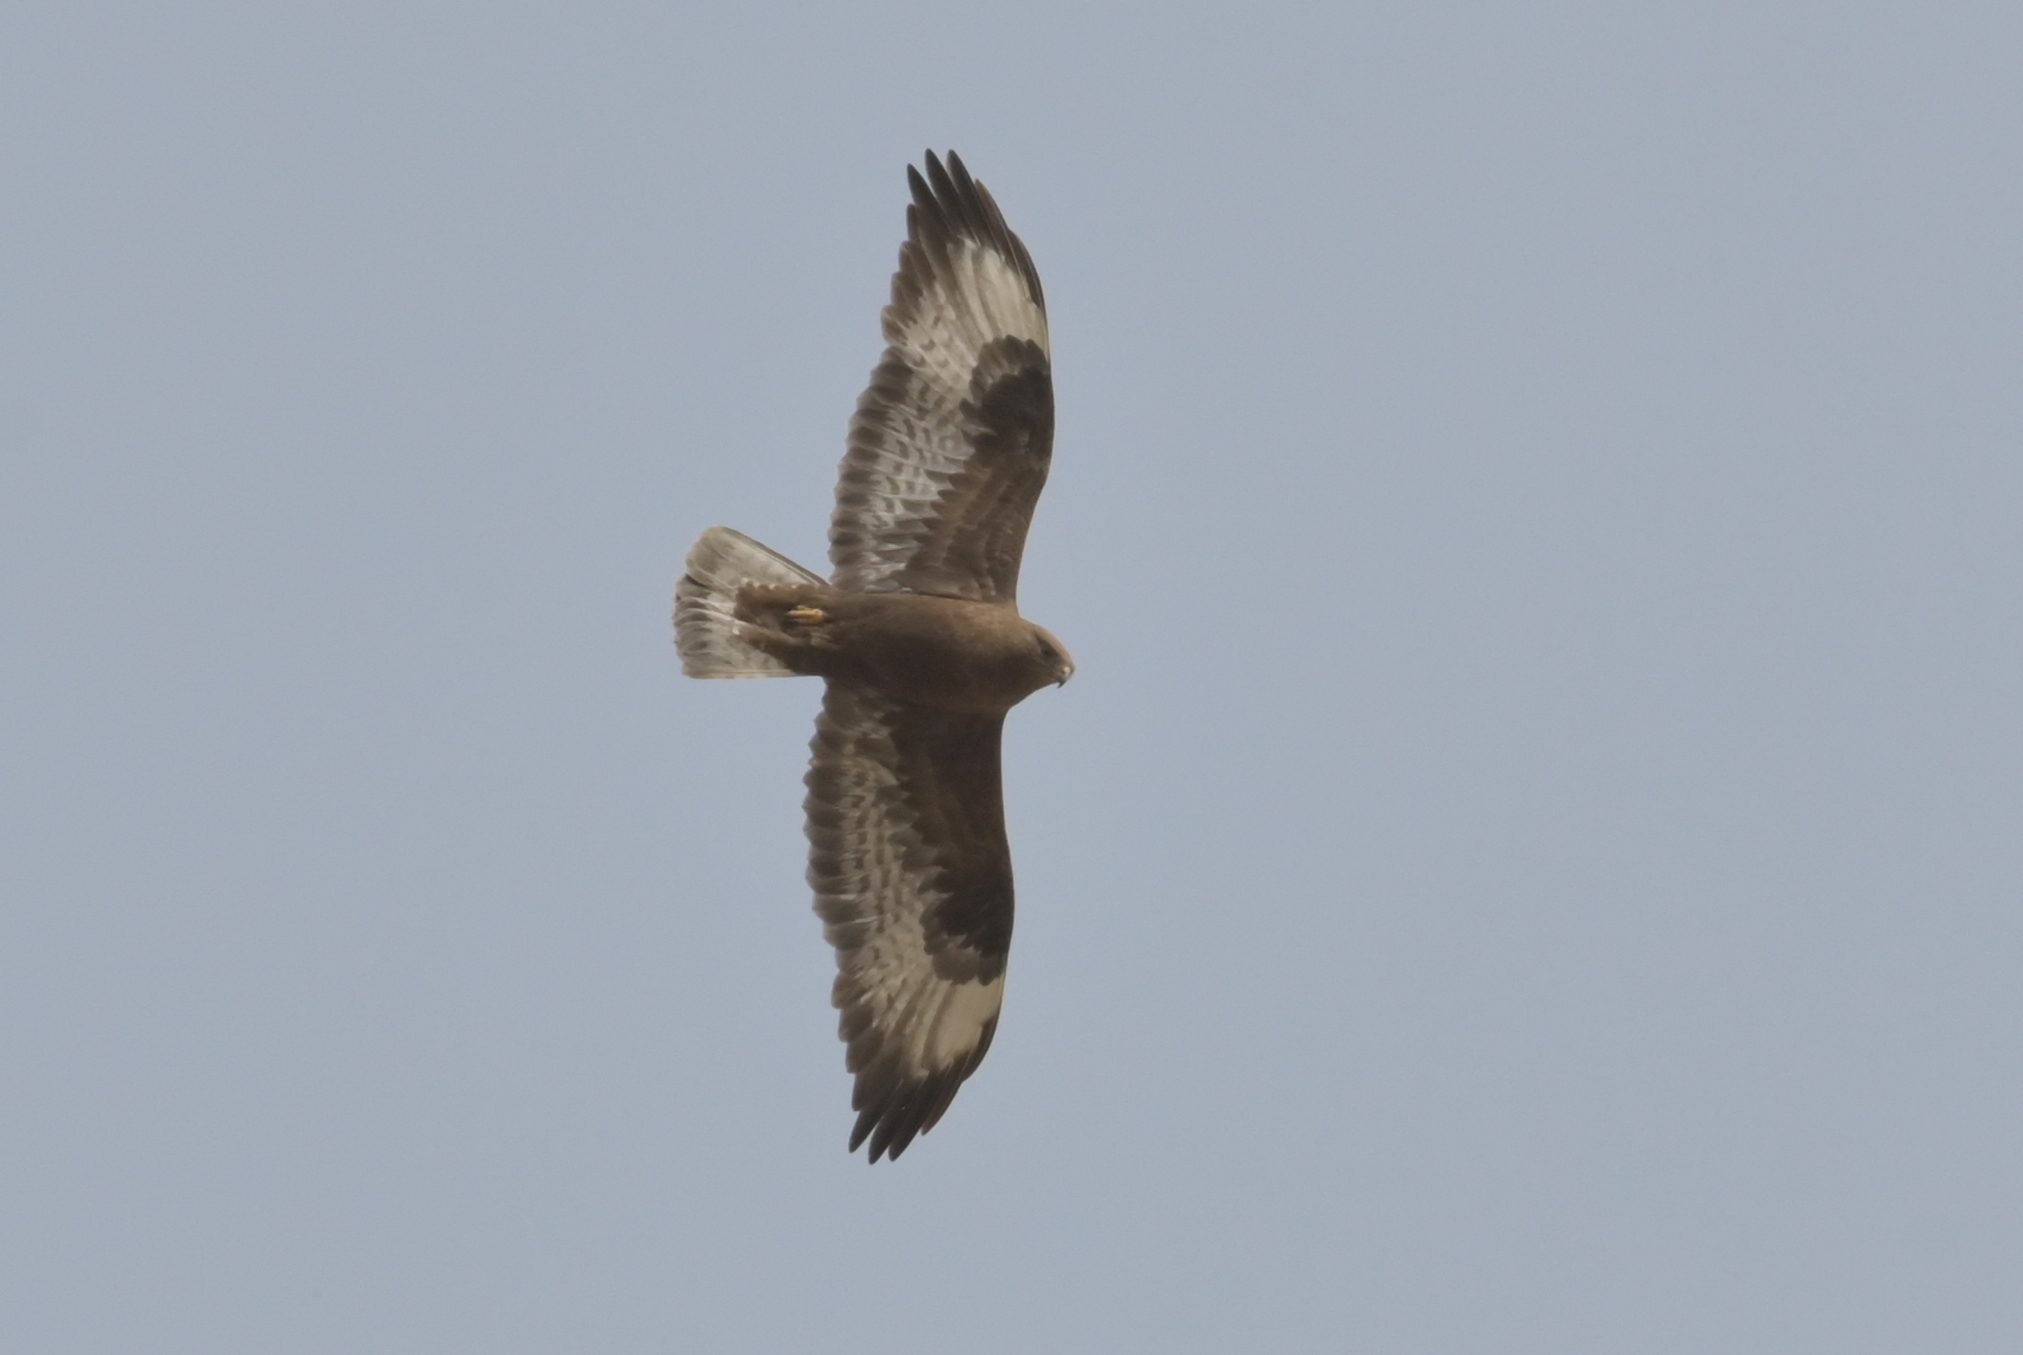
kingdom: Animalia
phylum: Chordata
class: Aves
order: Accipitriformes
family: Accipitridae
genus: Buteo
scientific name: Buteo hemilasius
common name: Upland buzzard
